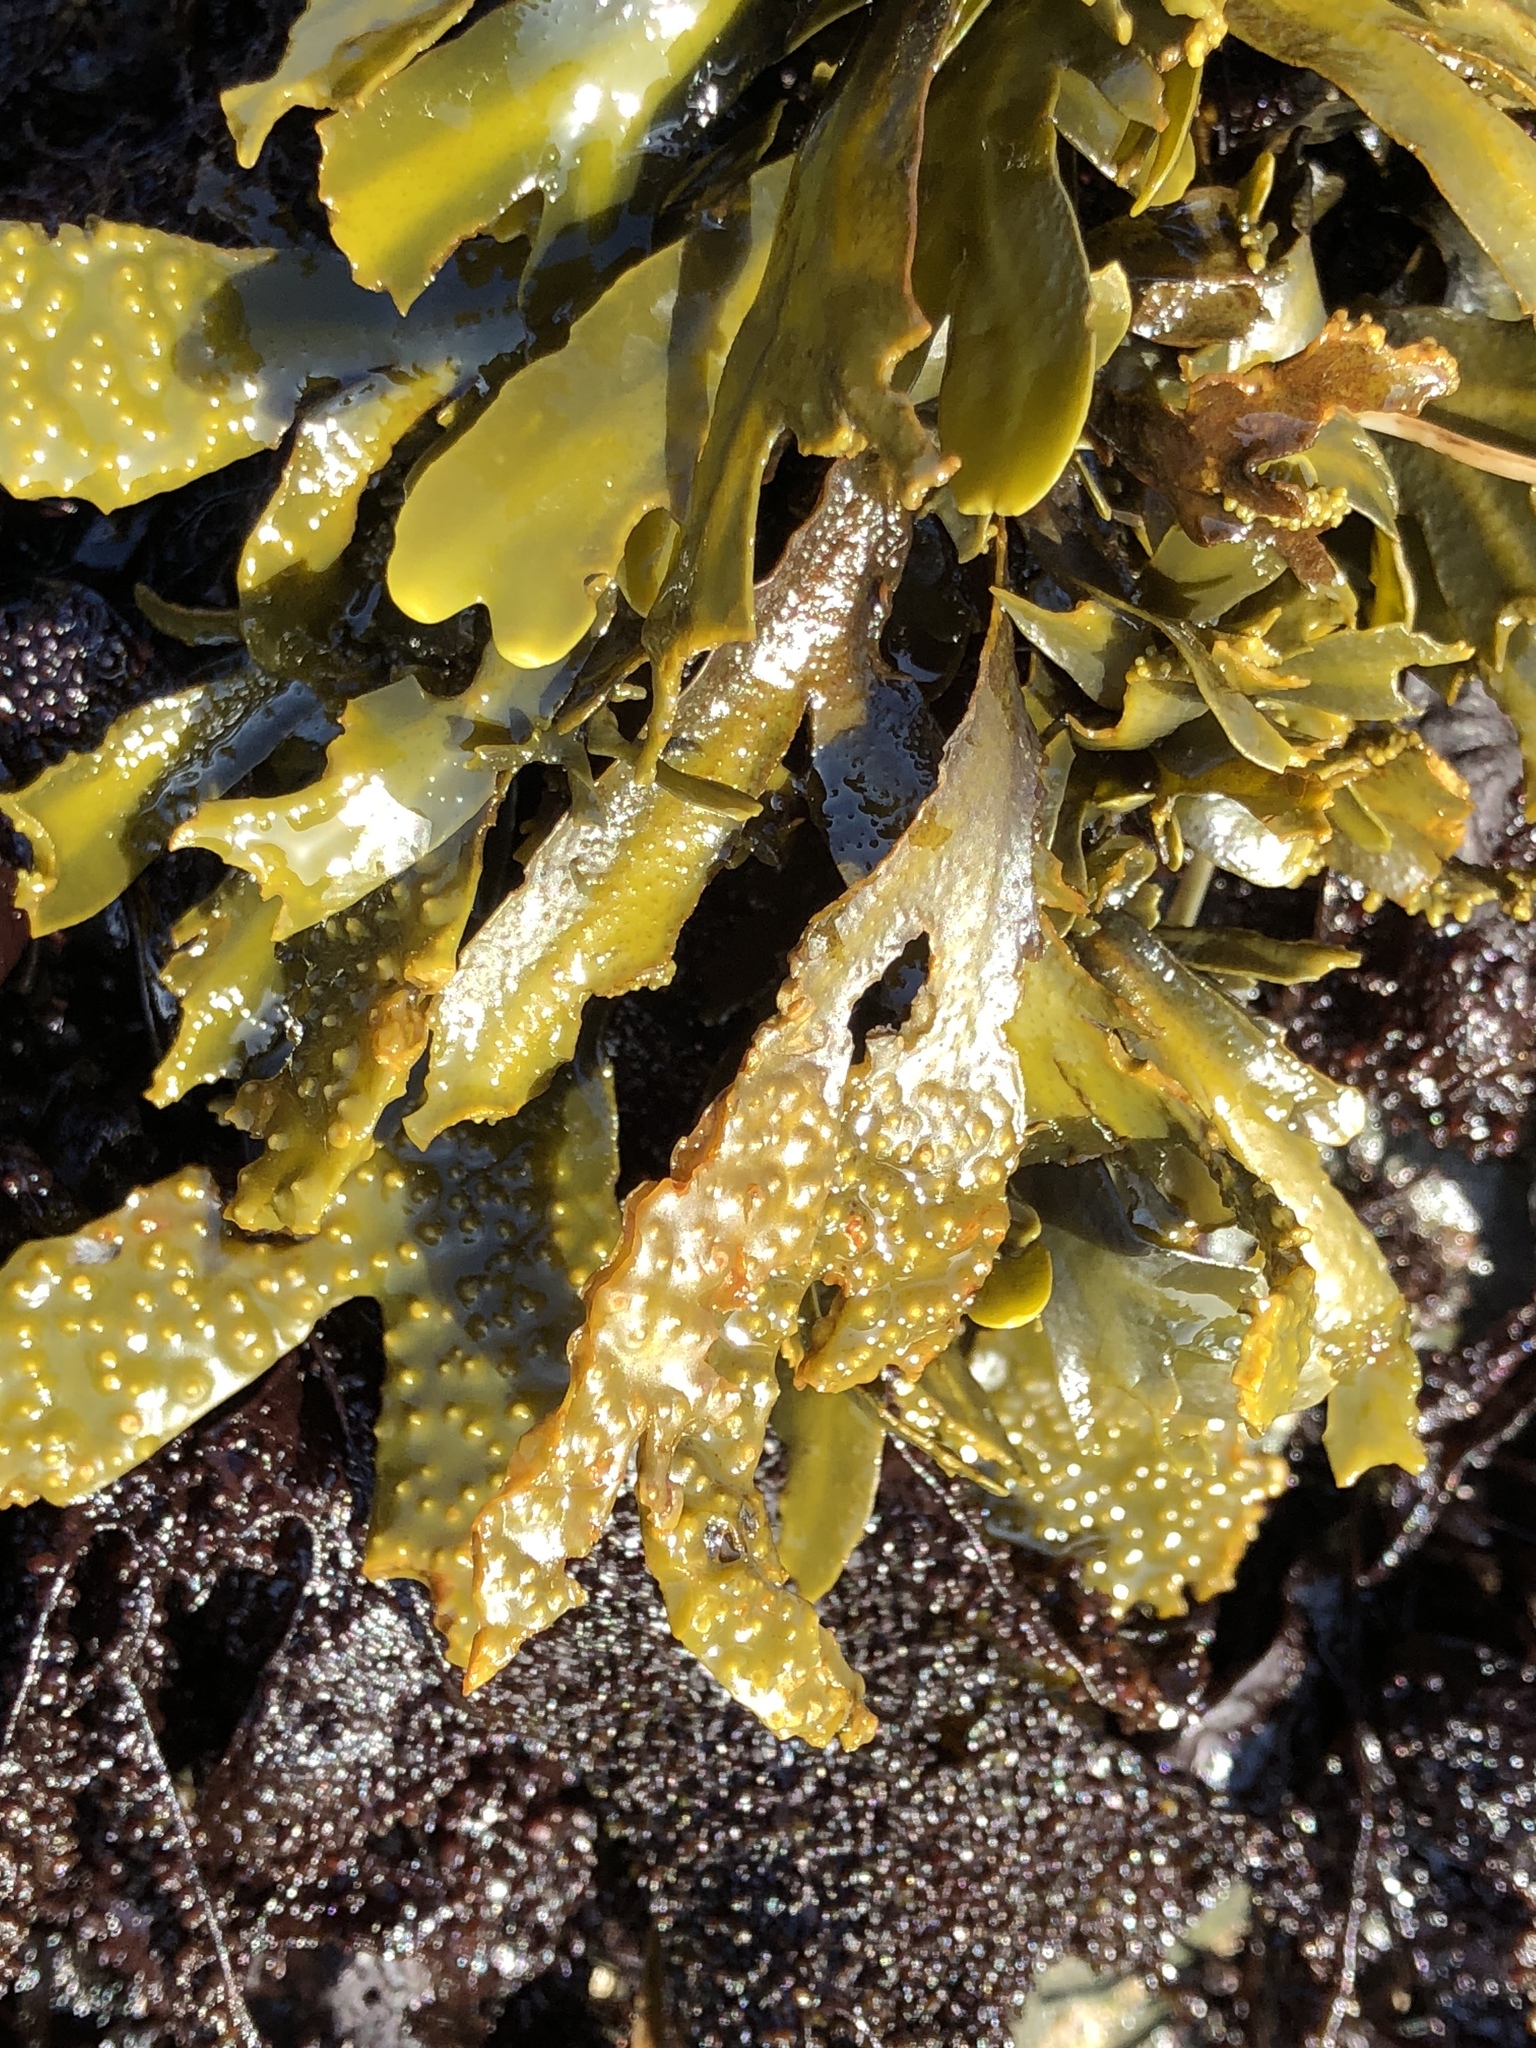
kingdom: Chromista
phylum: Ochrophyta
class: Phaeophyceae
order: Fucales
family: Fucaceae
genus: Fucus
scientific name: Fucus distichus
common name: Rockweed
